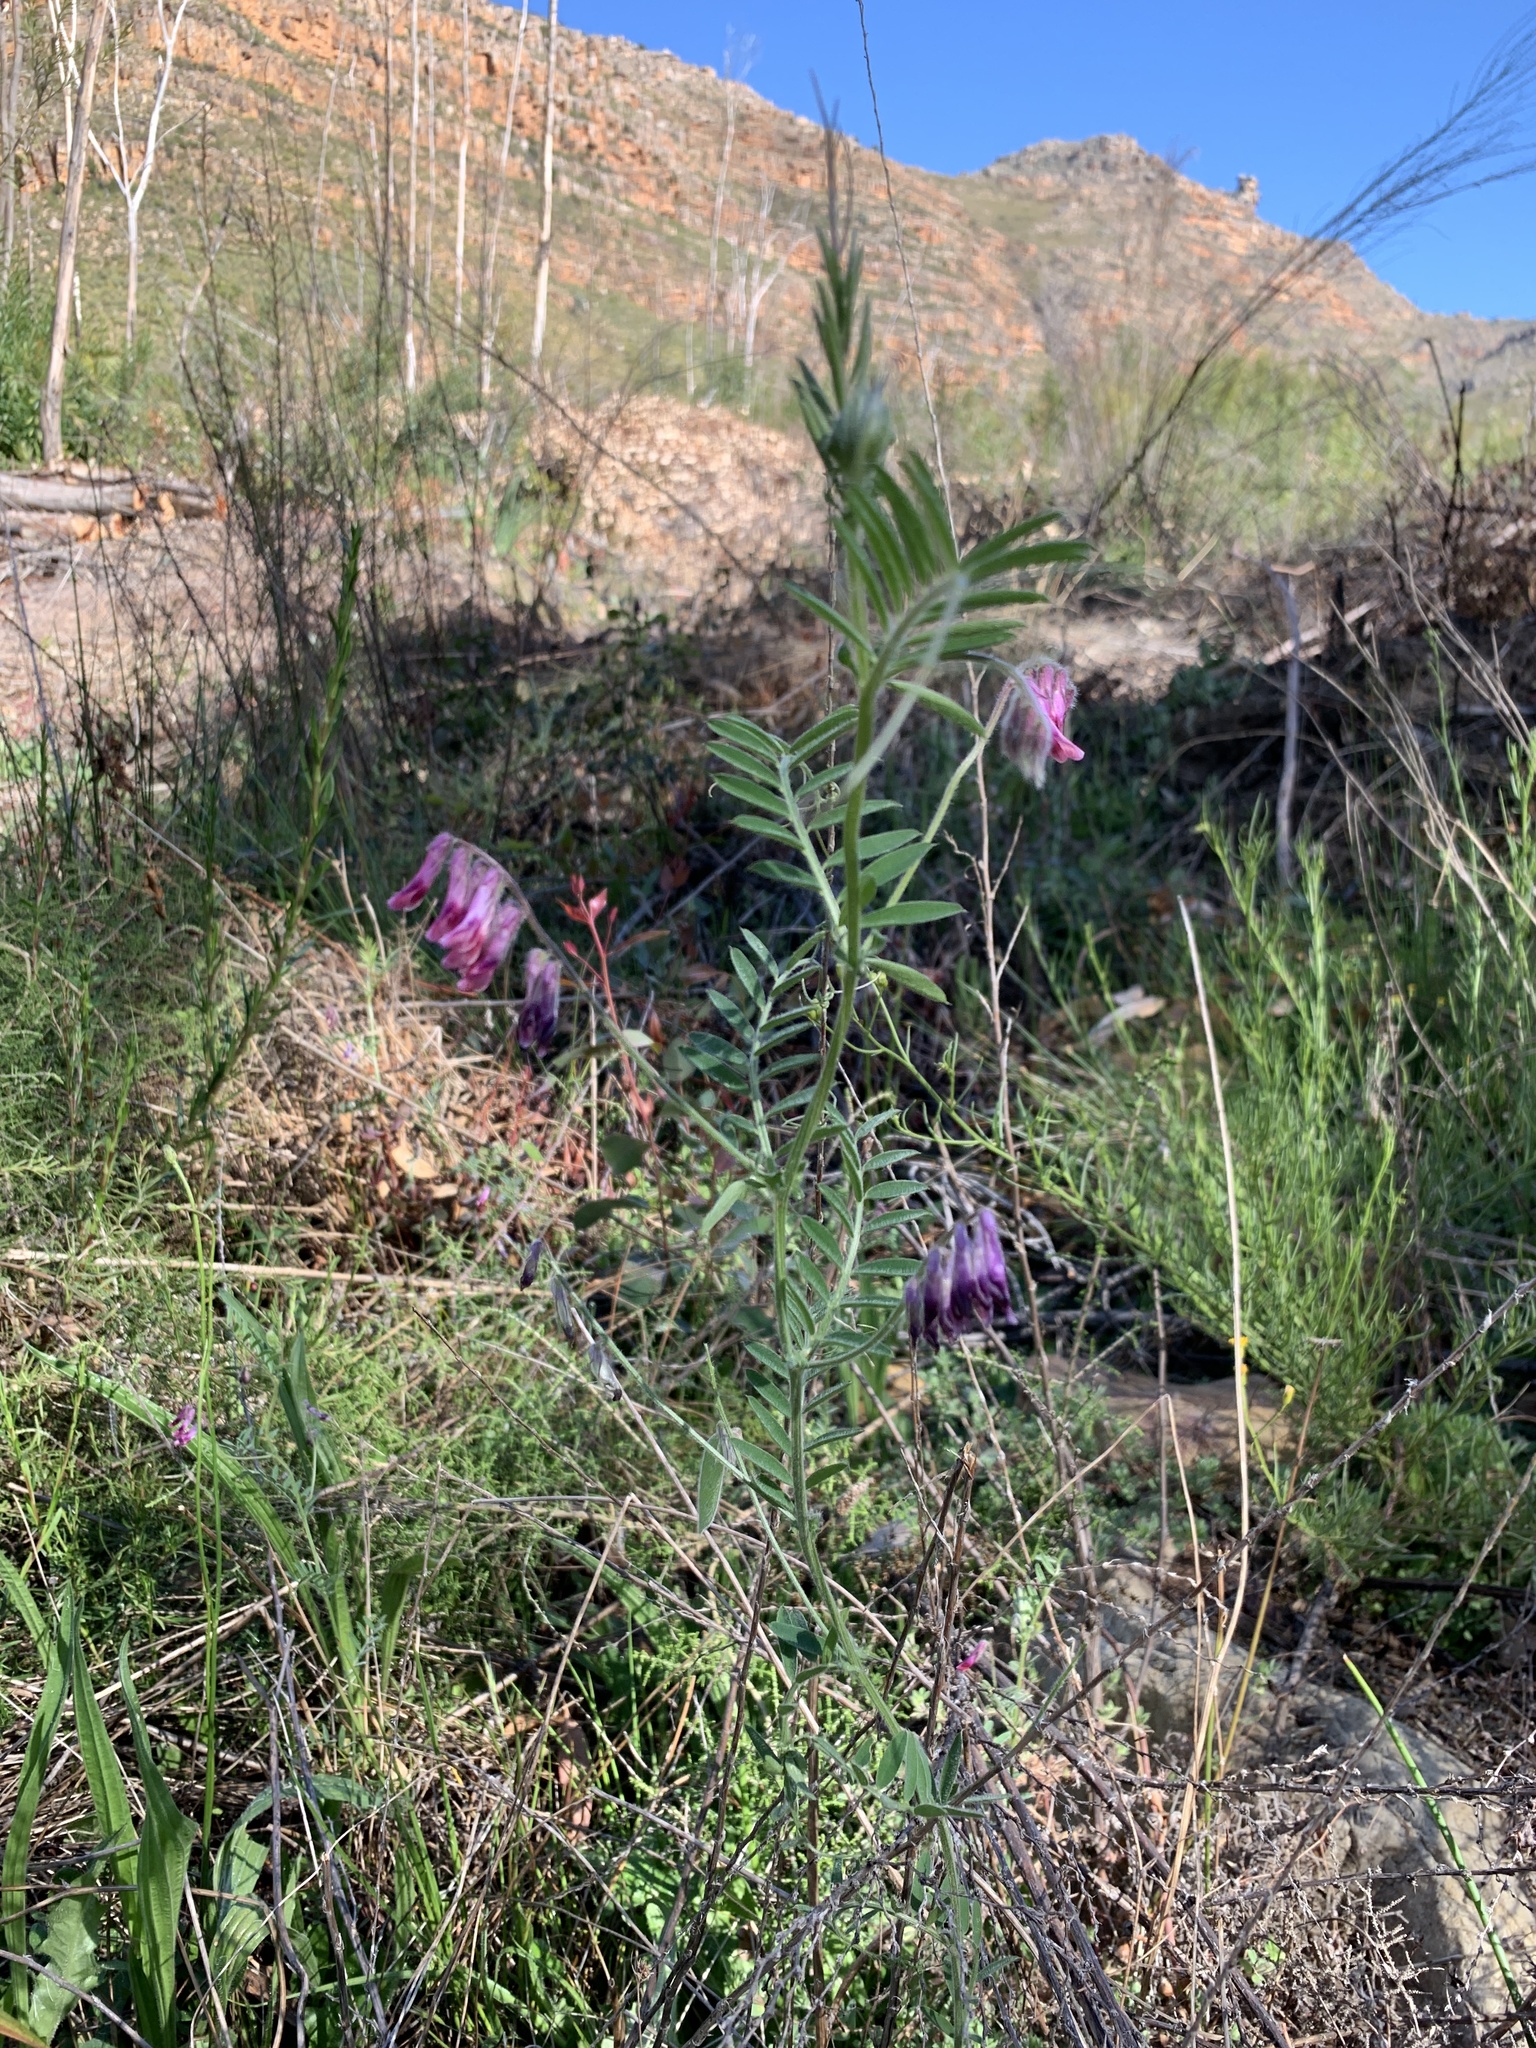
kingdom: Plantae
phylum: Tracheophyta
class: Magnoliopsida
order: Fabales
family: Fabaceae
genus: Vicia
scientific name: Vicia benghalensis
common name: Purple vetch
